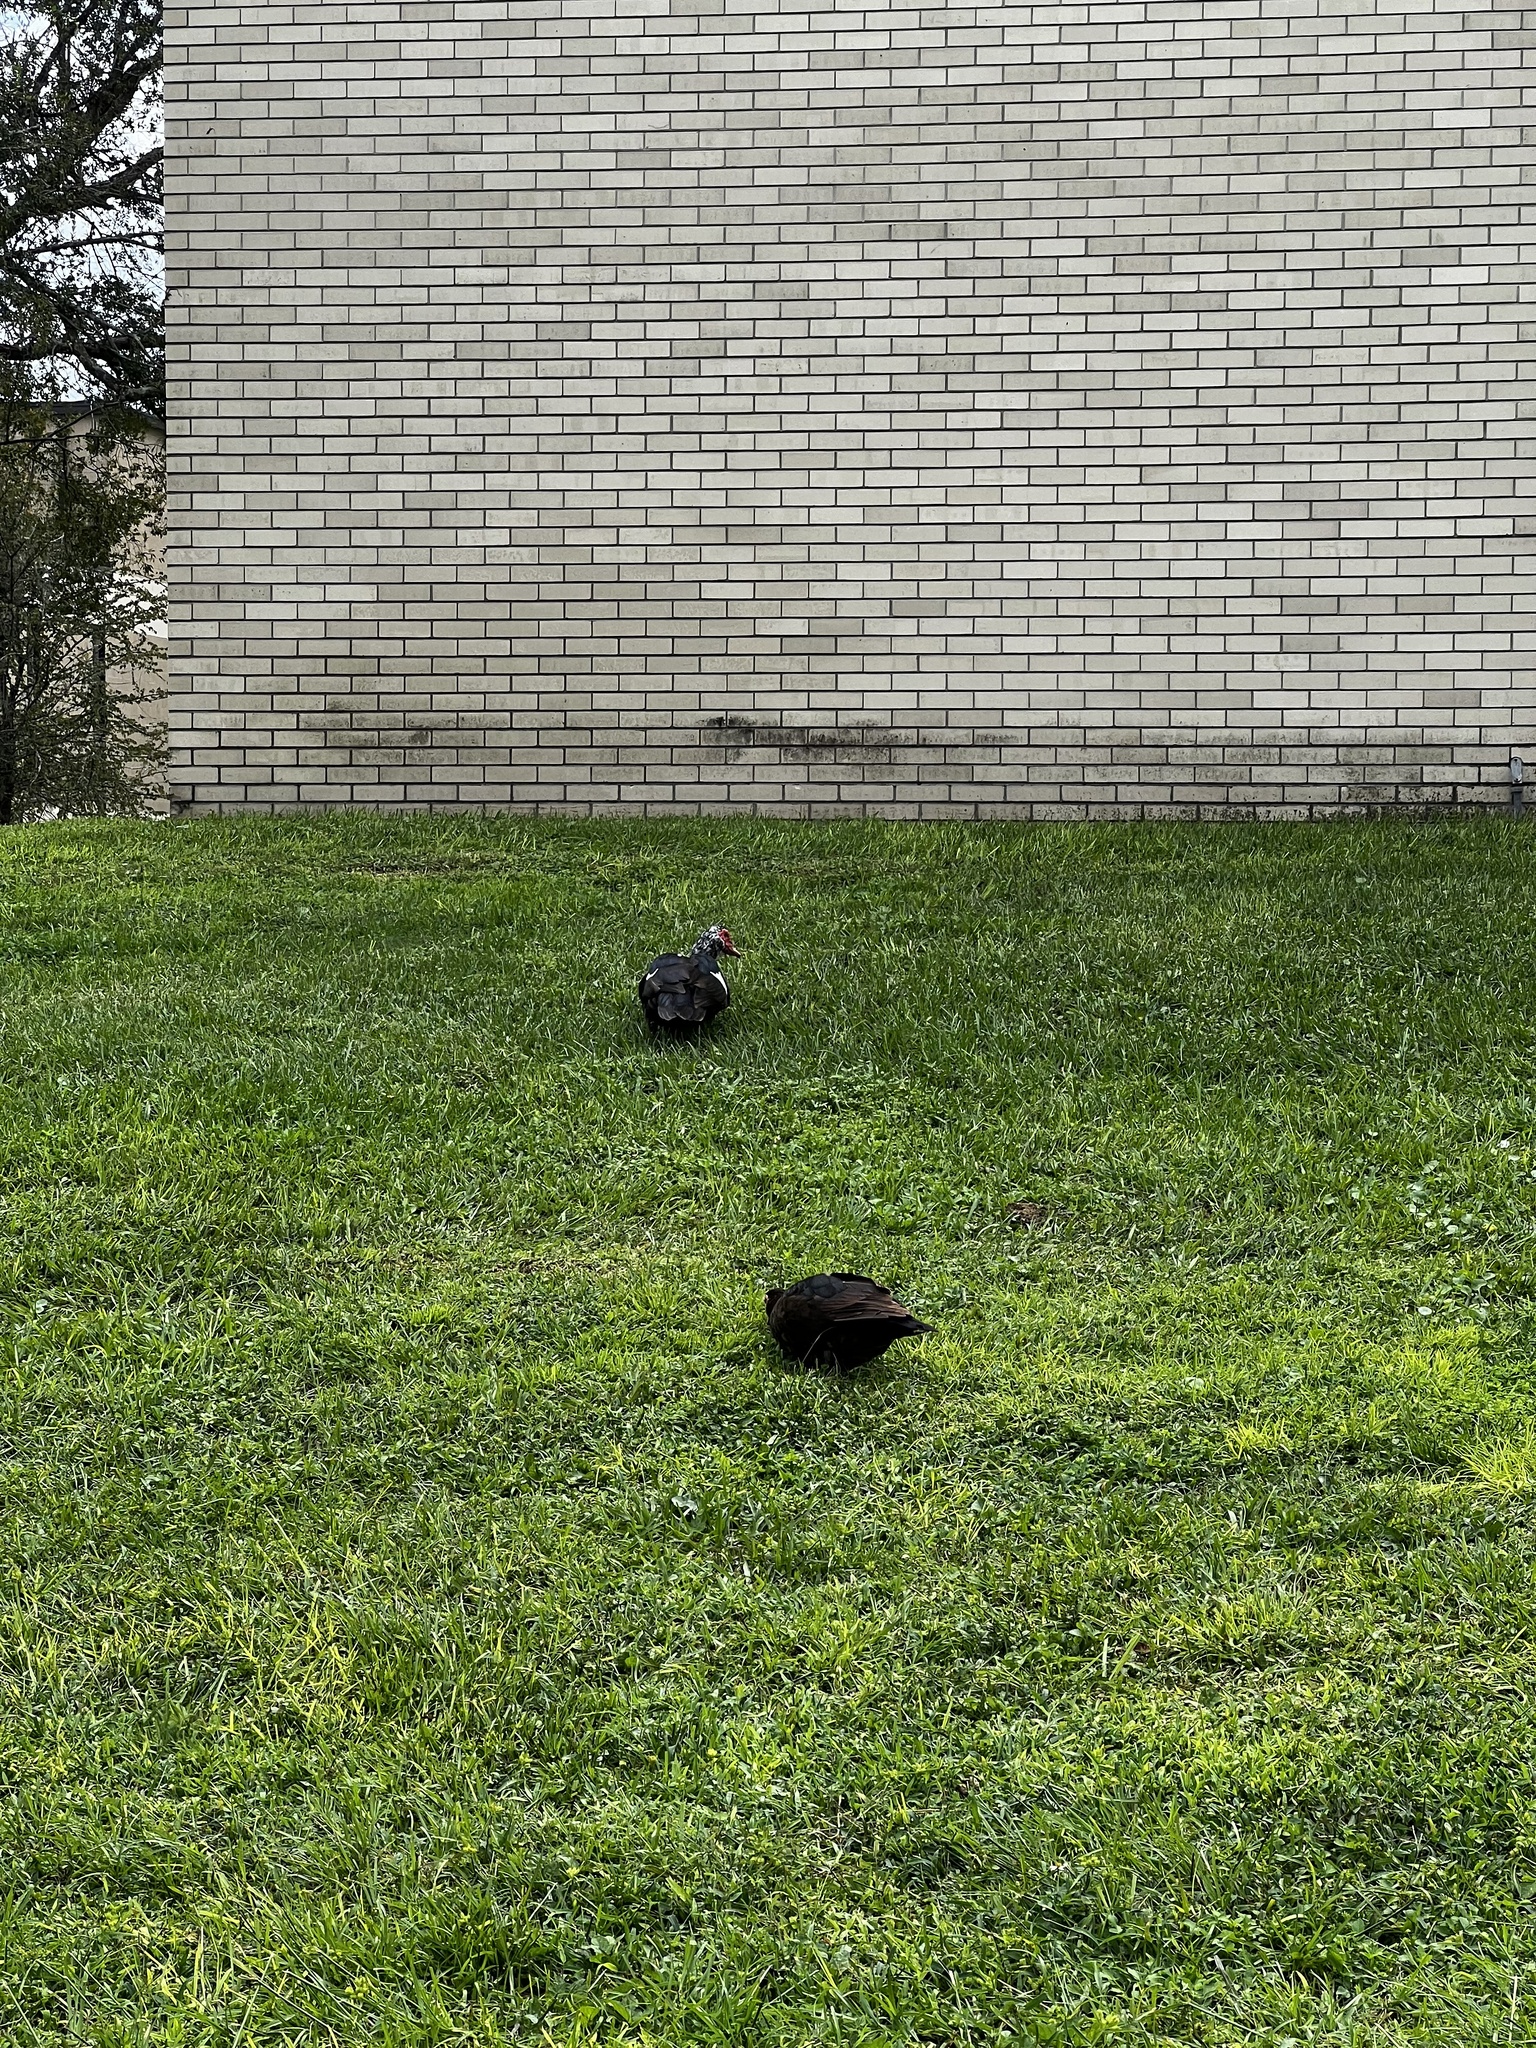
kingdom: Animalia
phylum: Chordata
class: Aves
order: Anseriformes
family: Anatidae
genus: Cairina
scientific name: Cairina moschata
